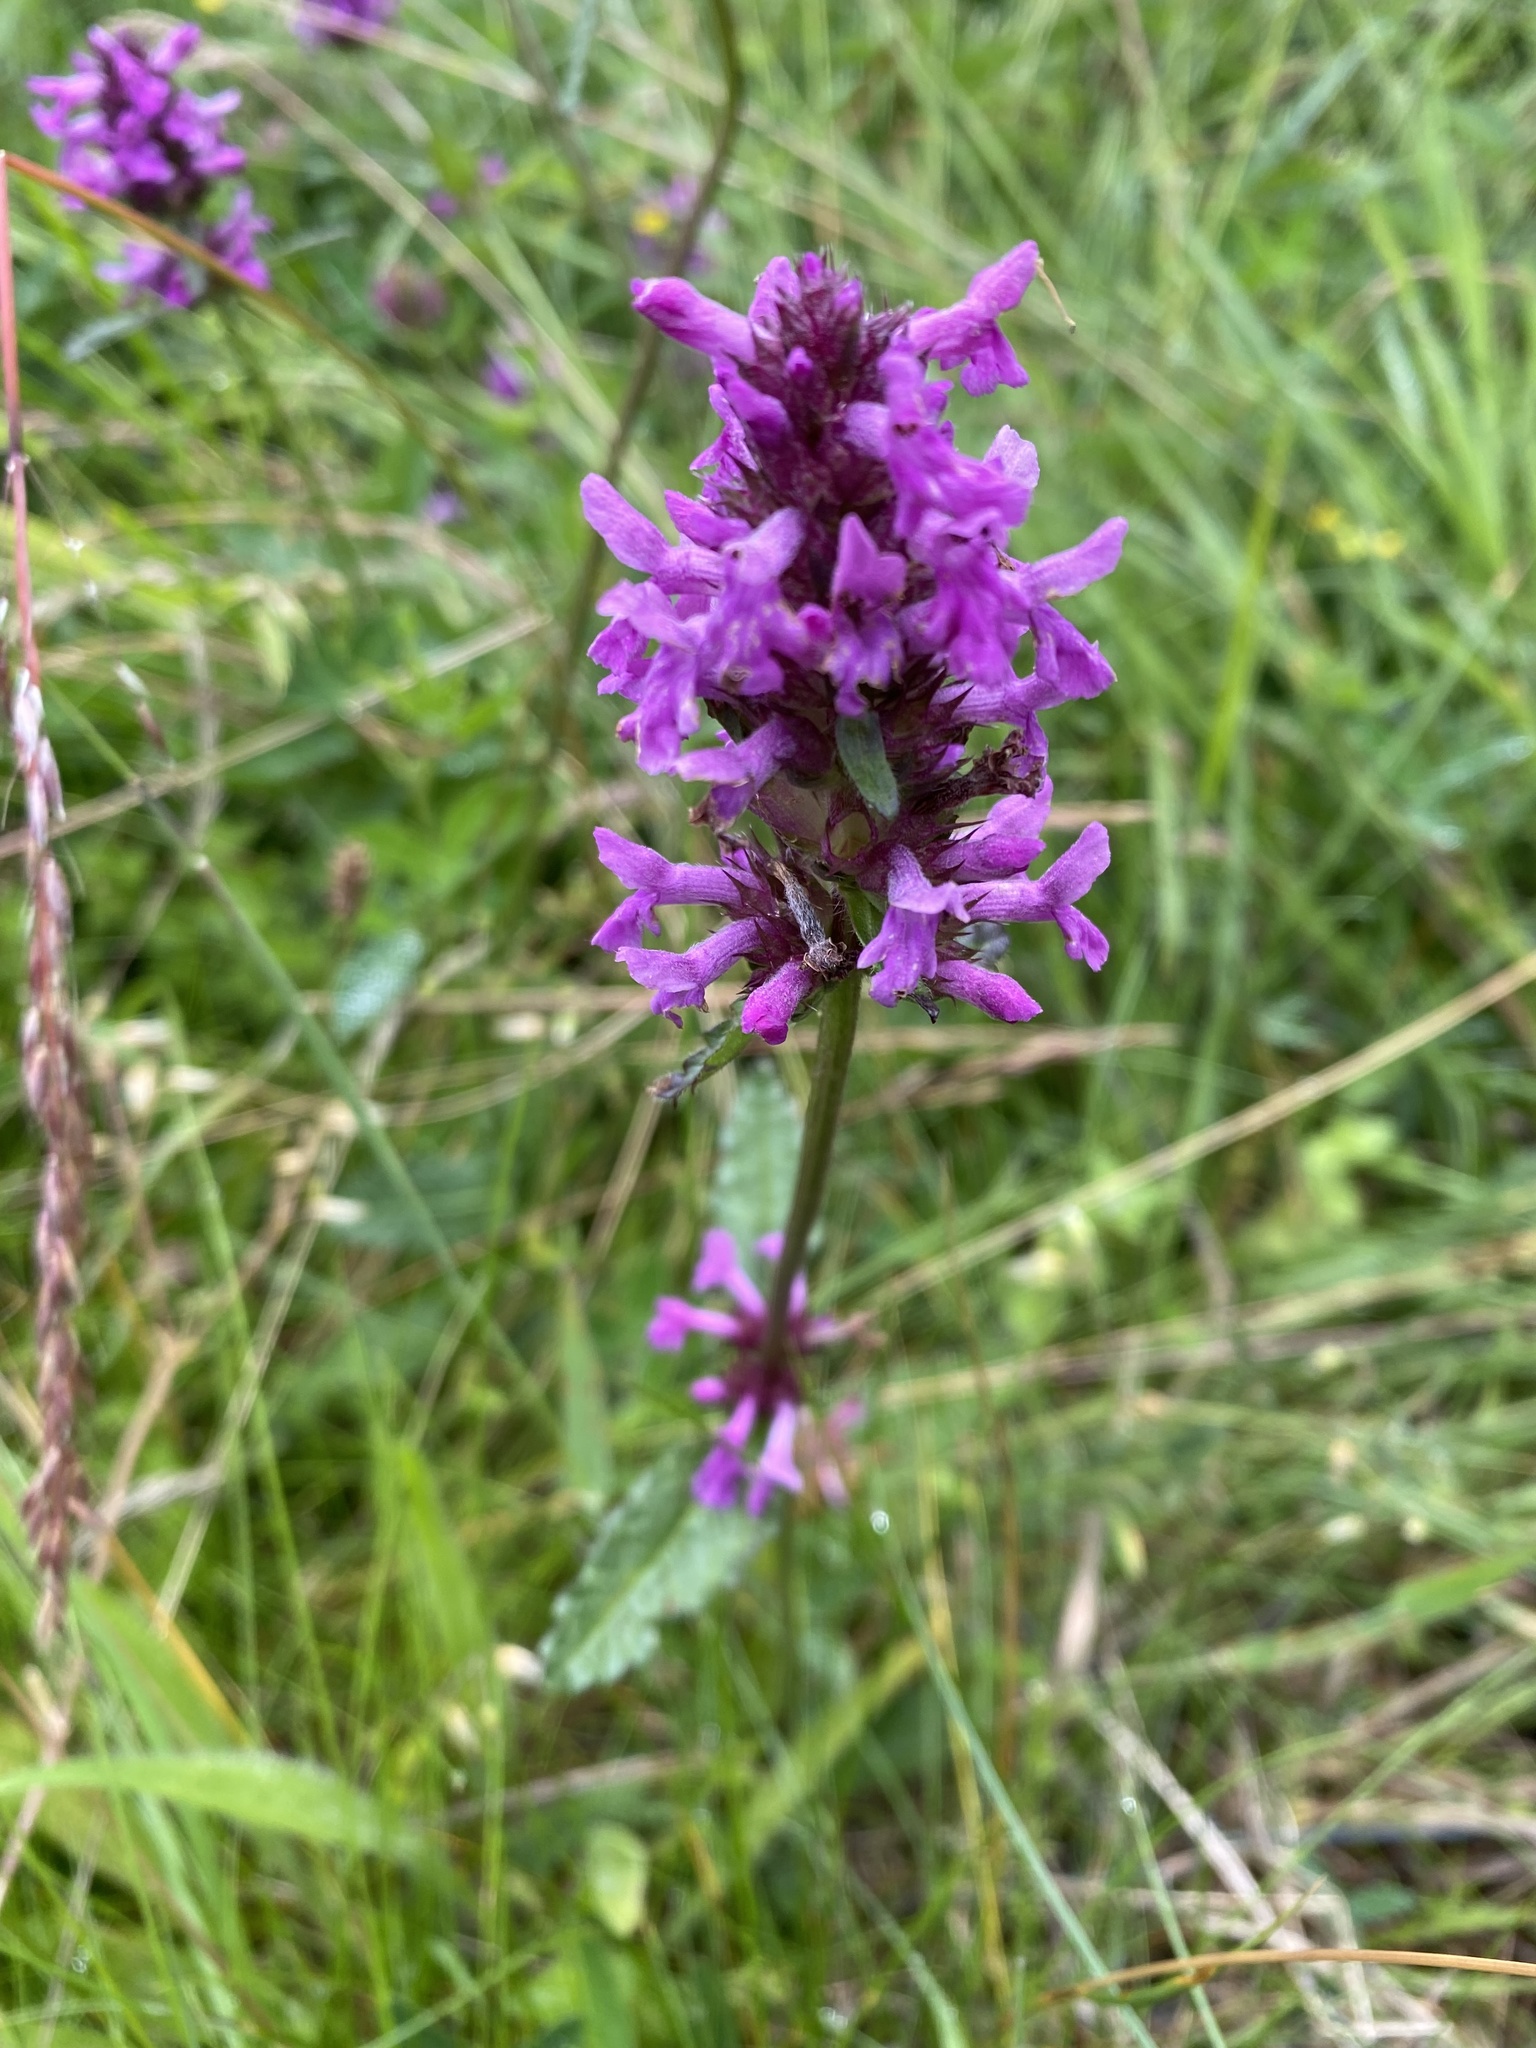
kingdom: Plantae
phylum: Tracheophyta
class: Magnoliopsida
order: Lamiales
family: Lamiaceae
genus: Betonica
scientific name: Betonica officinalis
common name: Bishop's-wort
